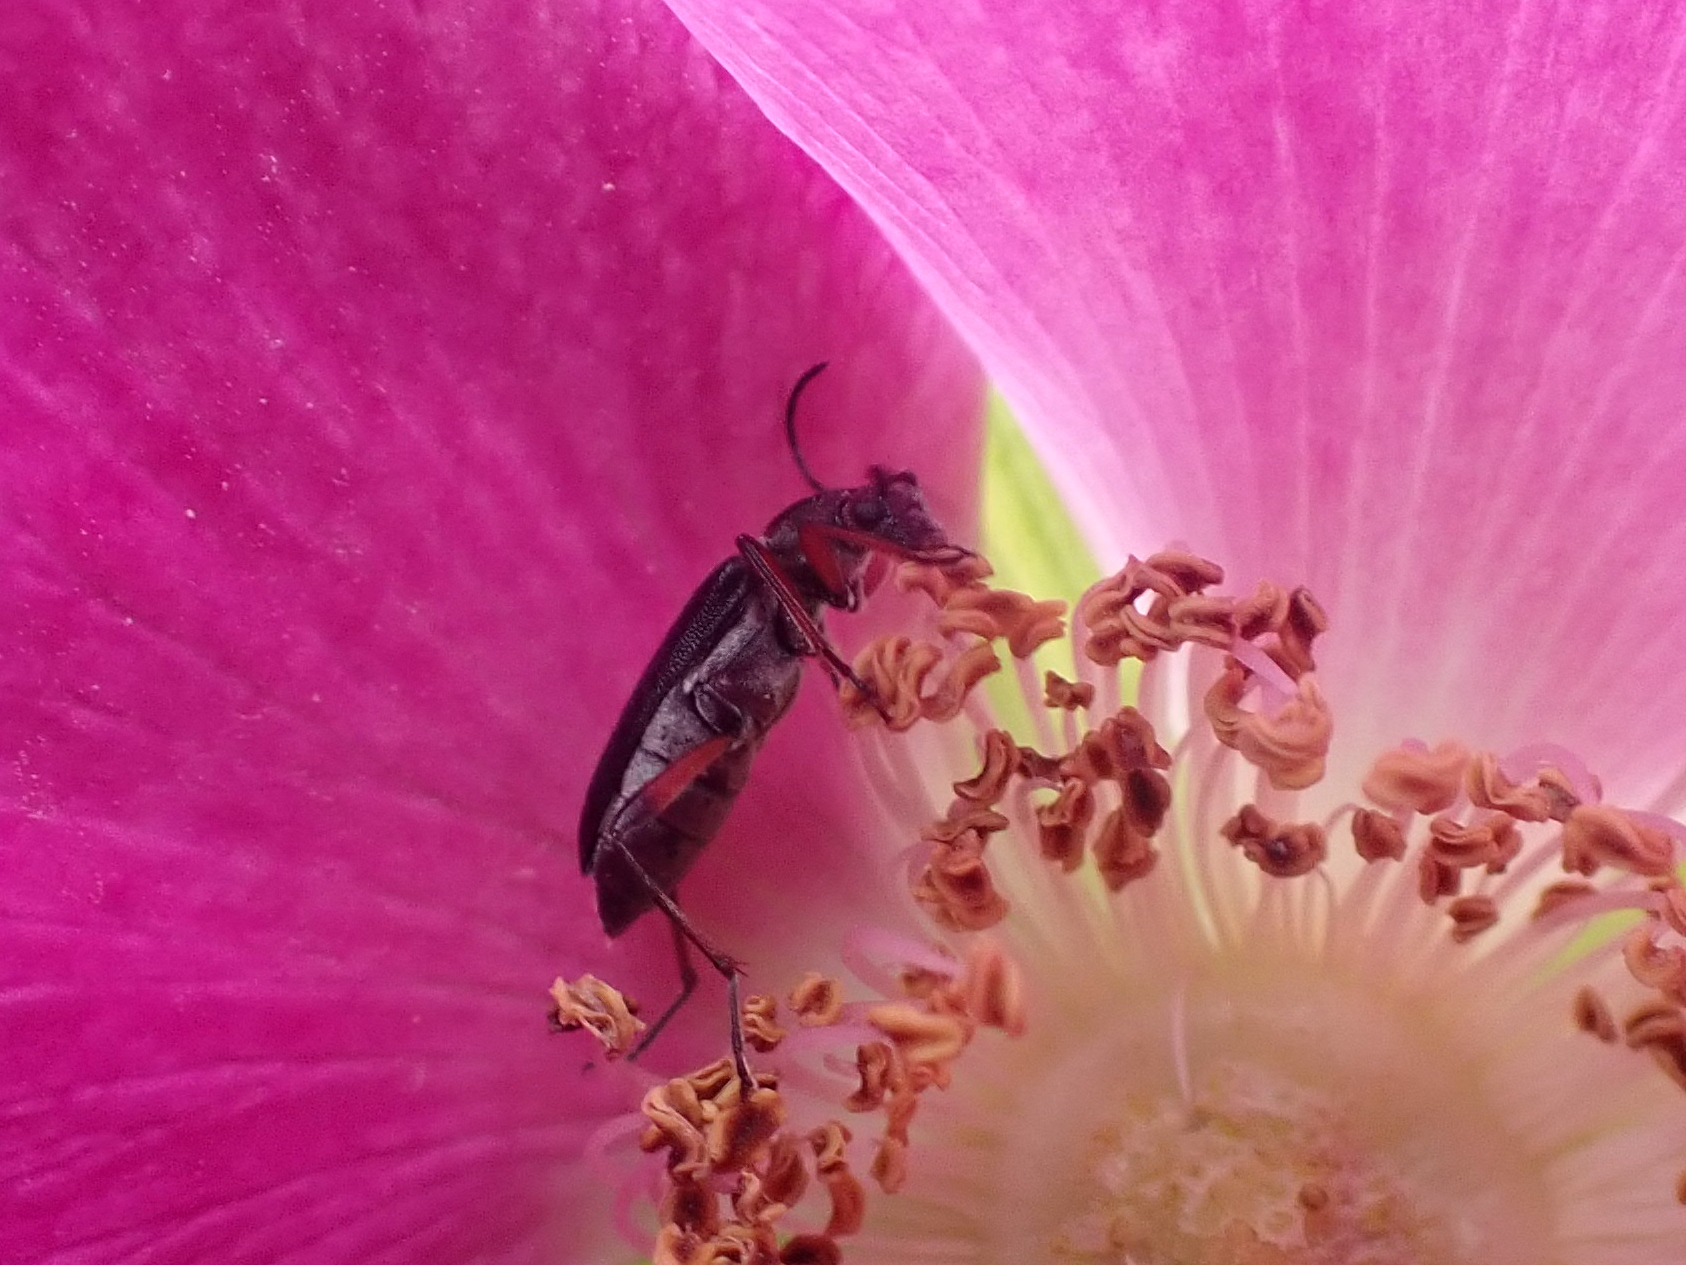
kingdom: Animalia
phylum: Arthropoda
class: Insecta
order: Coleoptera
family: Cerambycidae
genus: Grammoptera
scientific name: Grammoptera subargentata
